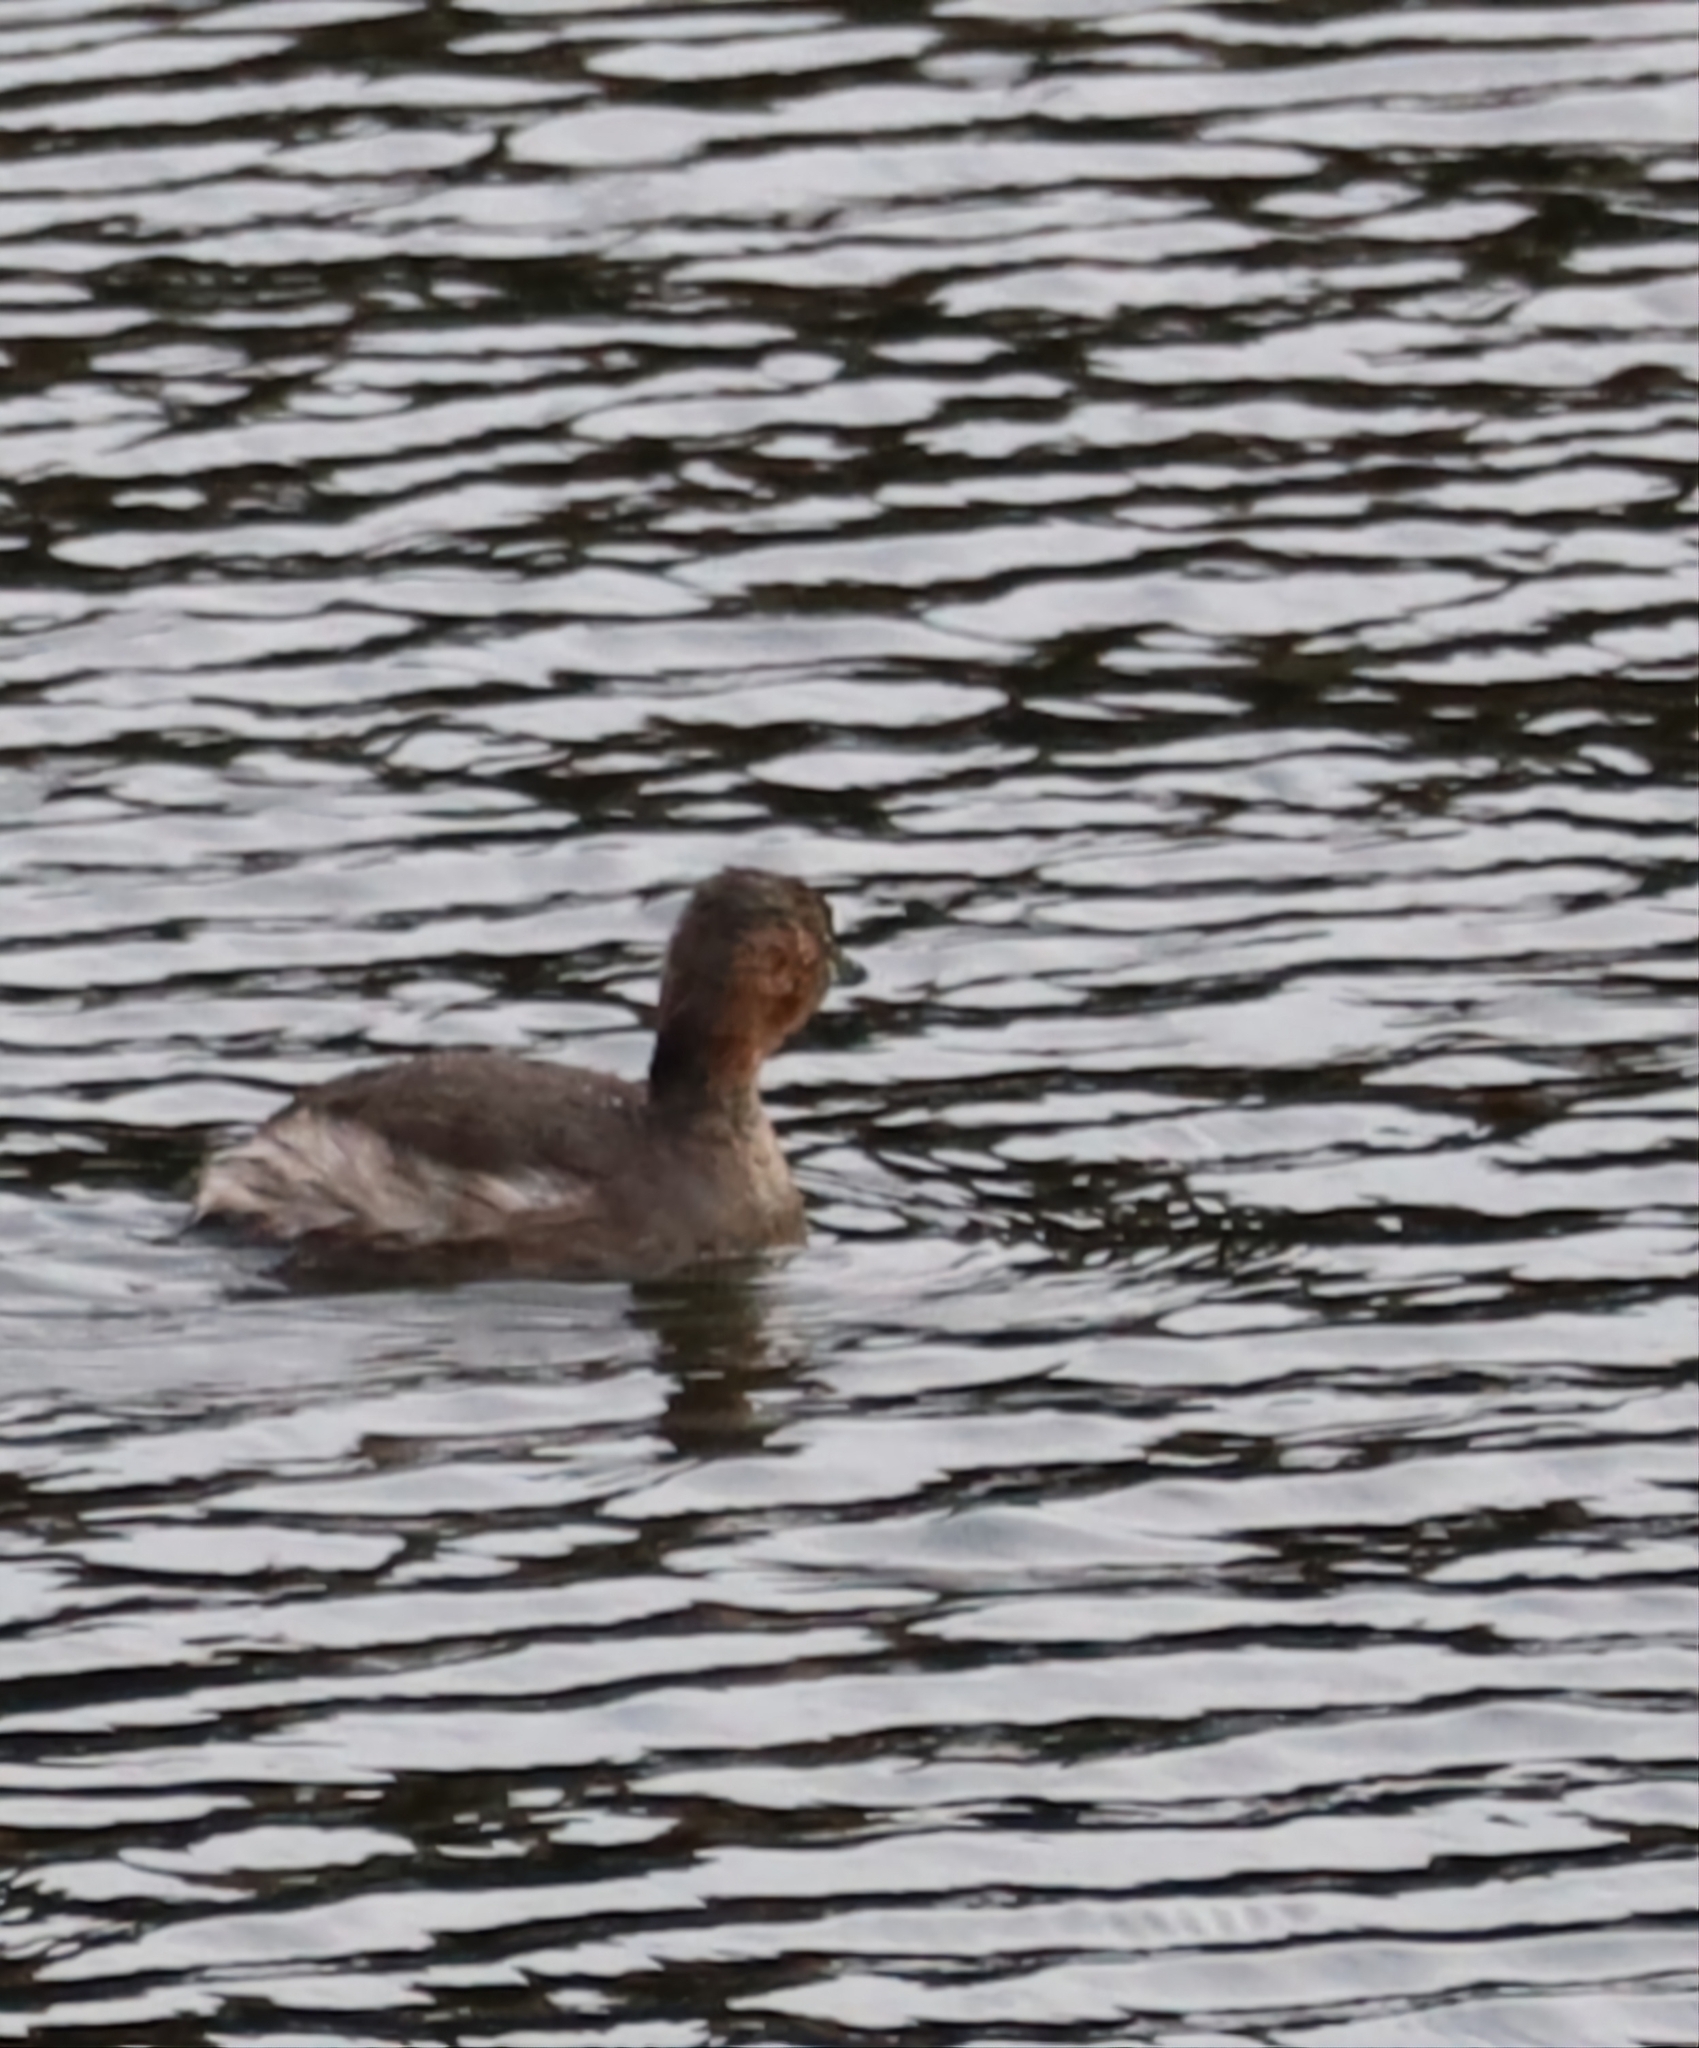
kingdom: Animalia
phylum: Chordata
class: Aves
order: Podicipediformes
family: Podicipedidae
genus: Tachybaptus
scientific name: Tachybaptus ruficollis
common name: Little grebe
